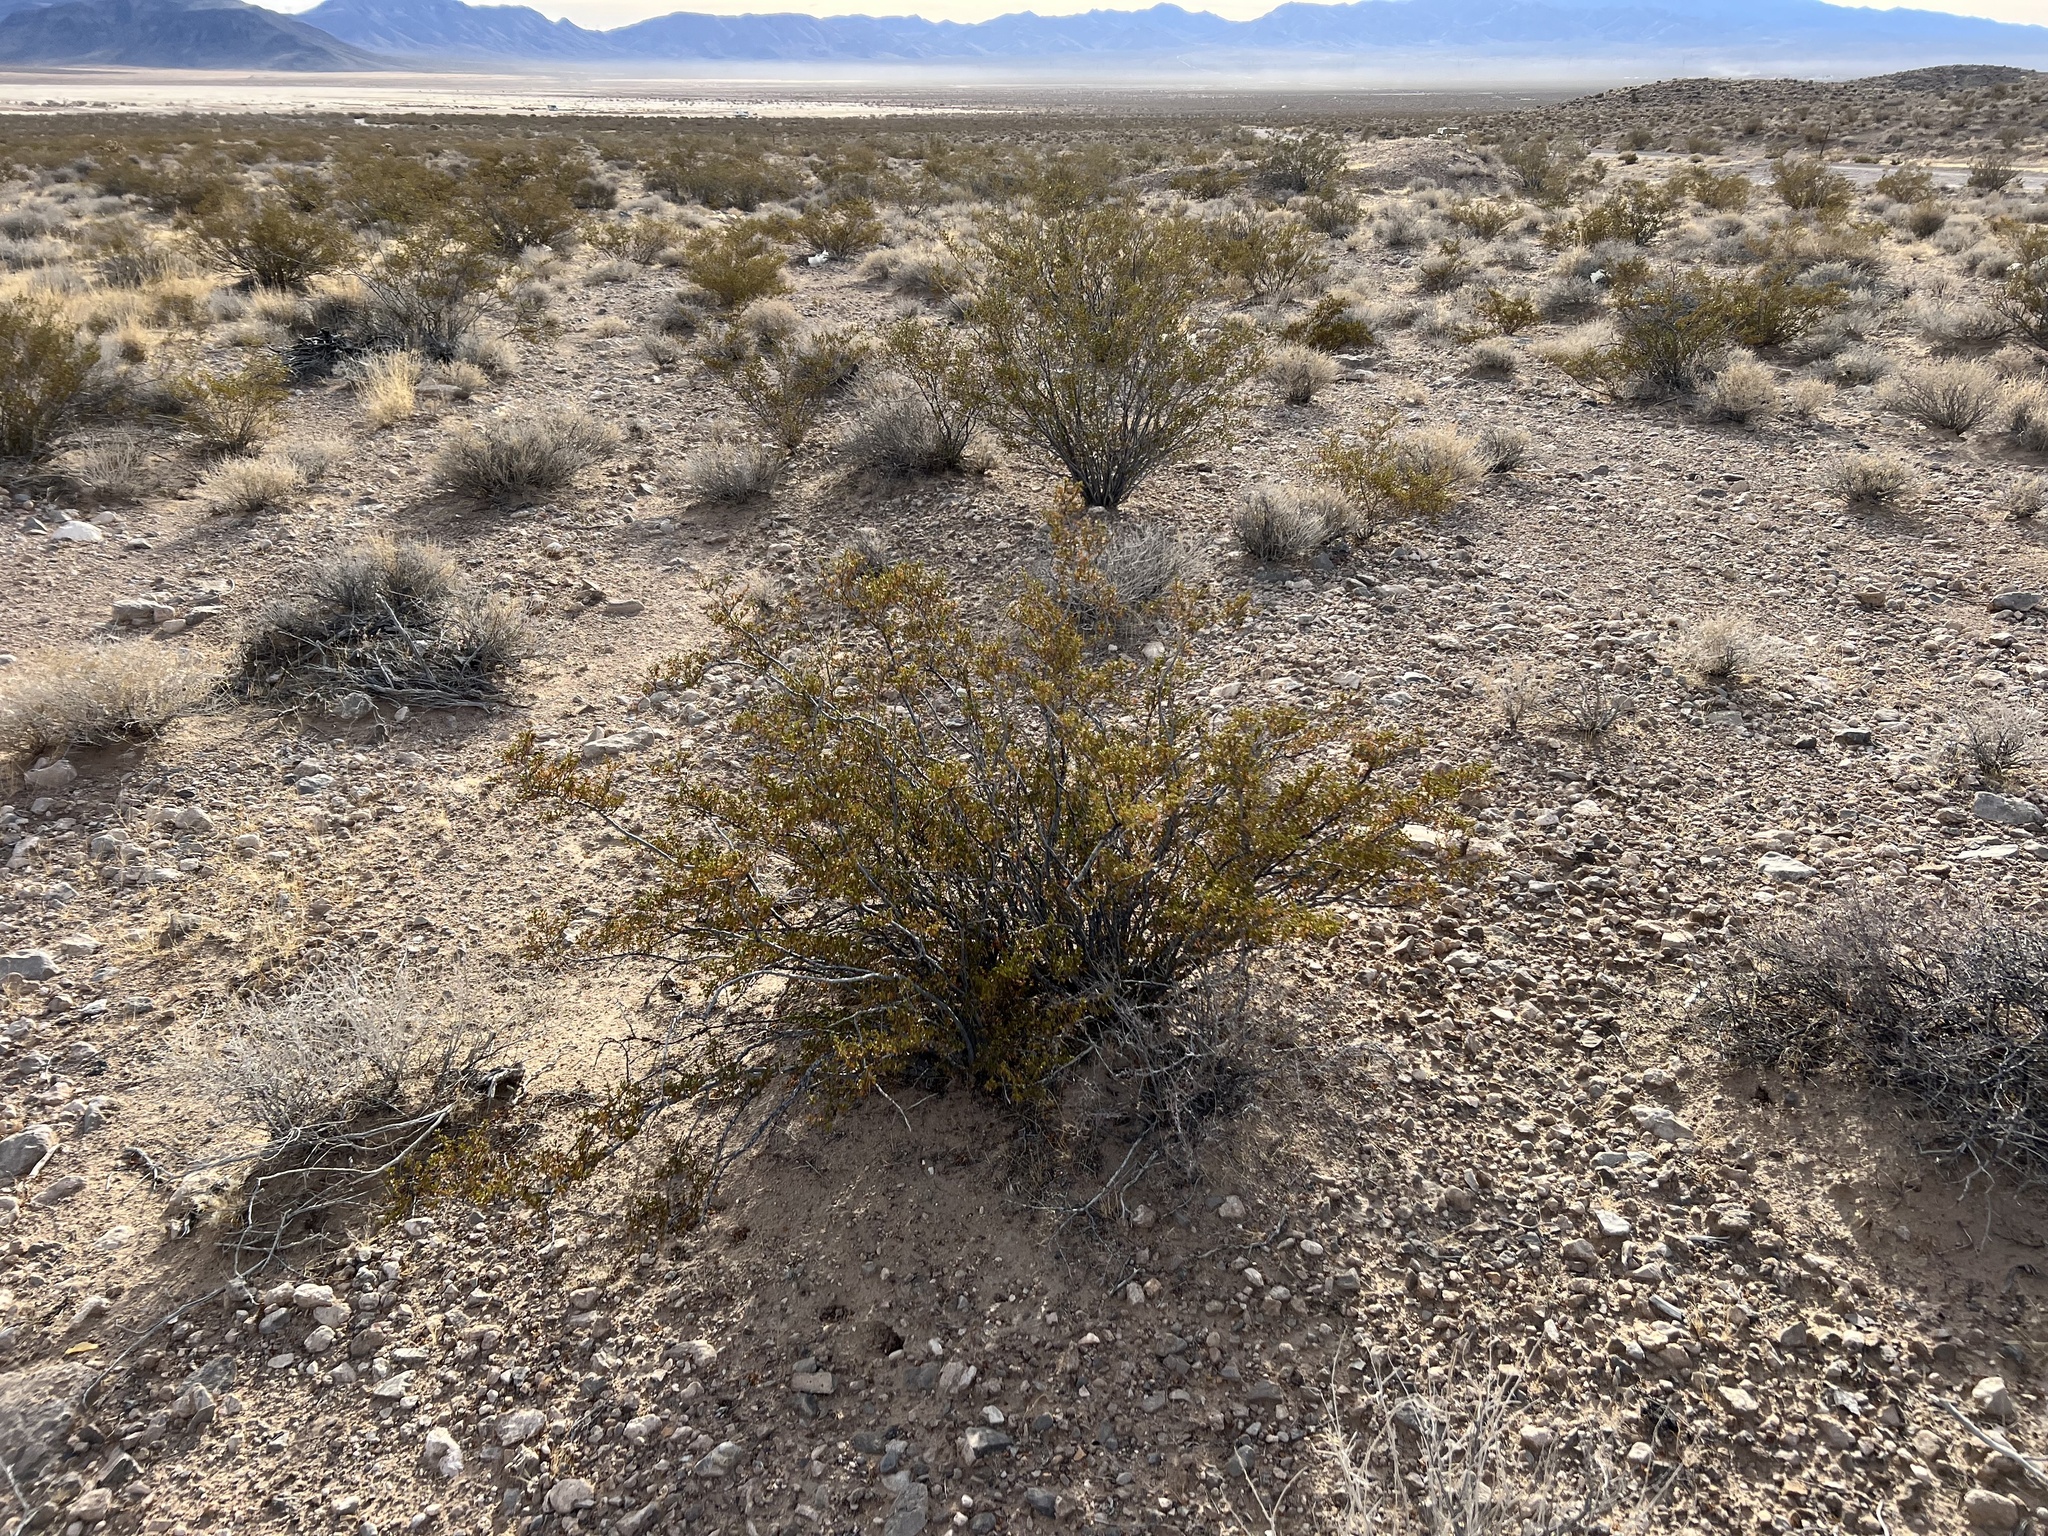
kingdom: Plantae
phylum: Tracheophyta
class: Magnoliopsida
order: Zygophyllales
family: Zygophyllaceae
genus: Larrea
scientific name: Larrea tridentata
